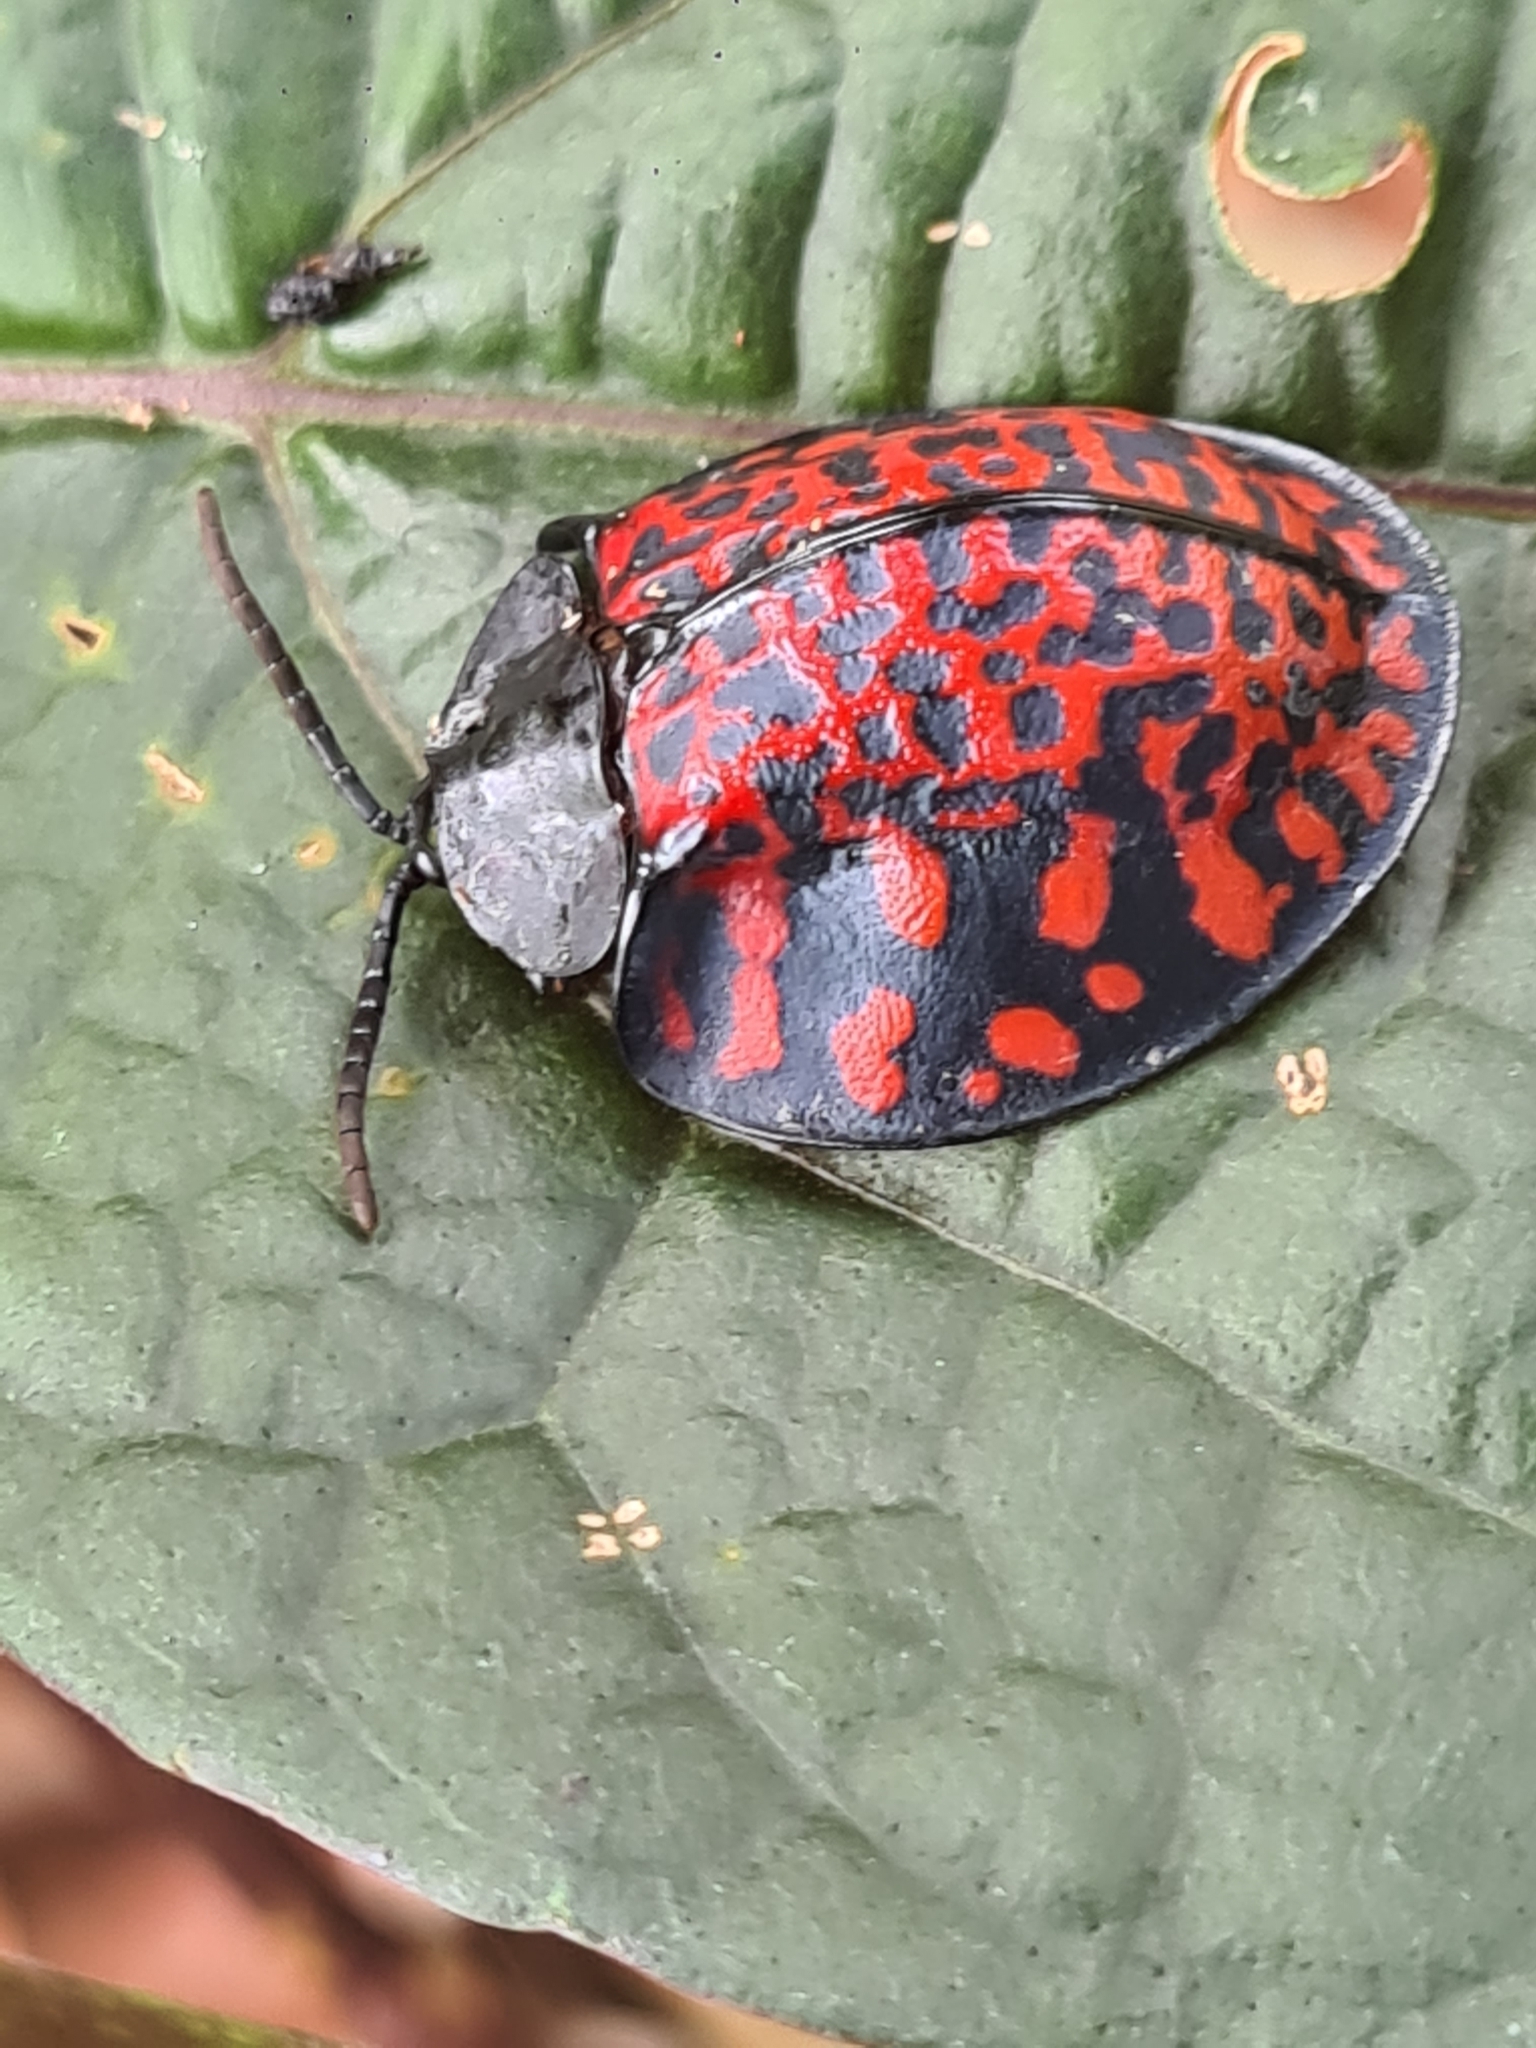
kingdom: Animalia
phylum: Arthropoda
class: Insecta
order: Coleoptera
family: Chrysomelidae
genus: Eugenysa
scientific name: Eugenysa venosa
